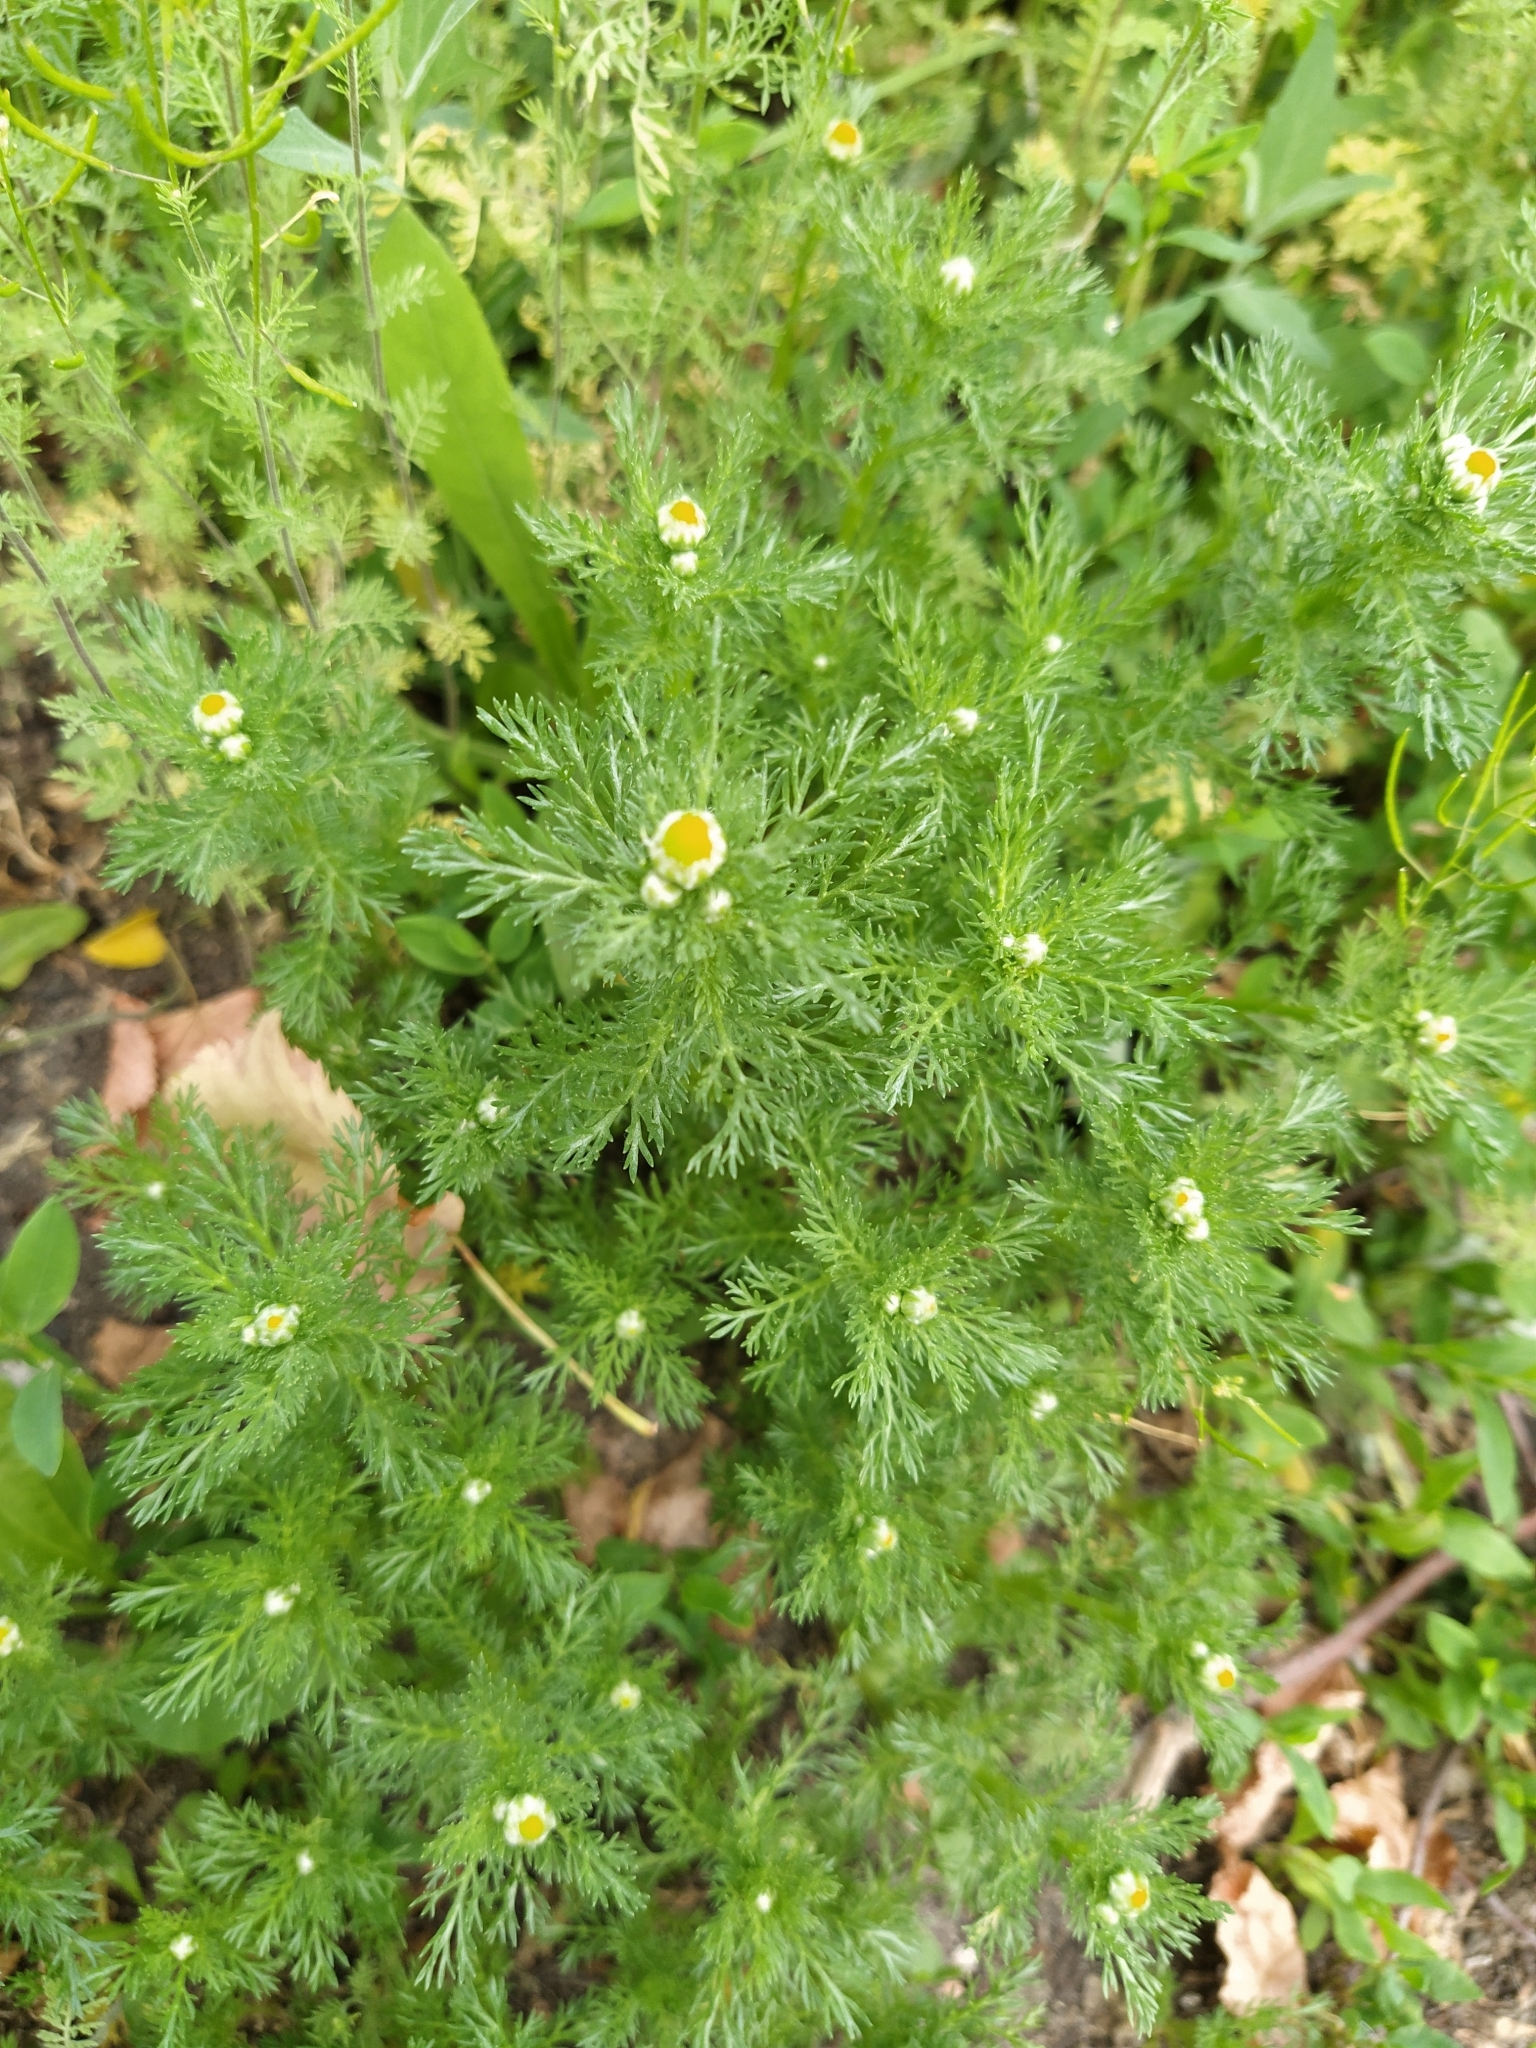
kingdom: Plantae
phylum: Tracheophyta
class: Magnoliopsida
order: Asterales
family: Asteraceae
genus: Matricaria
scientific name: Matricaria discoidea
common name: Disc mayweed
